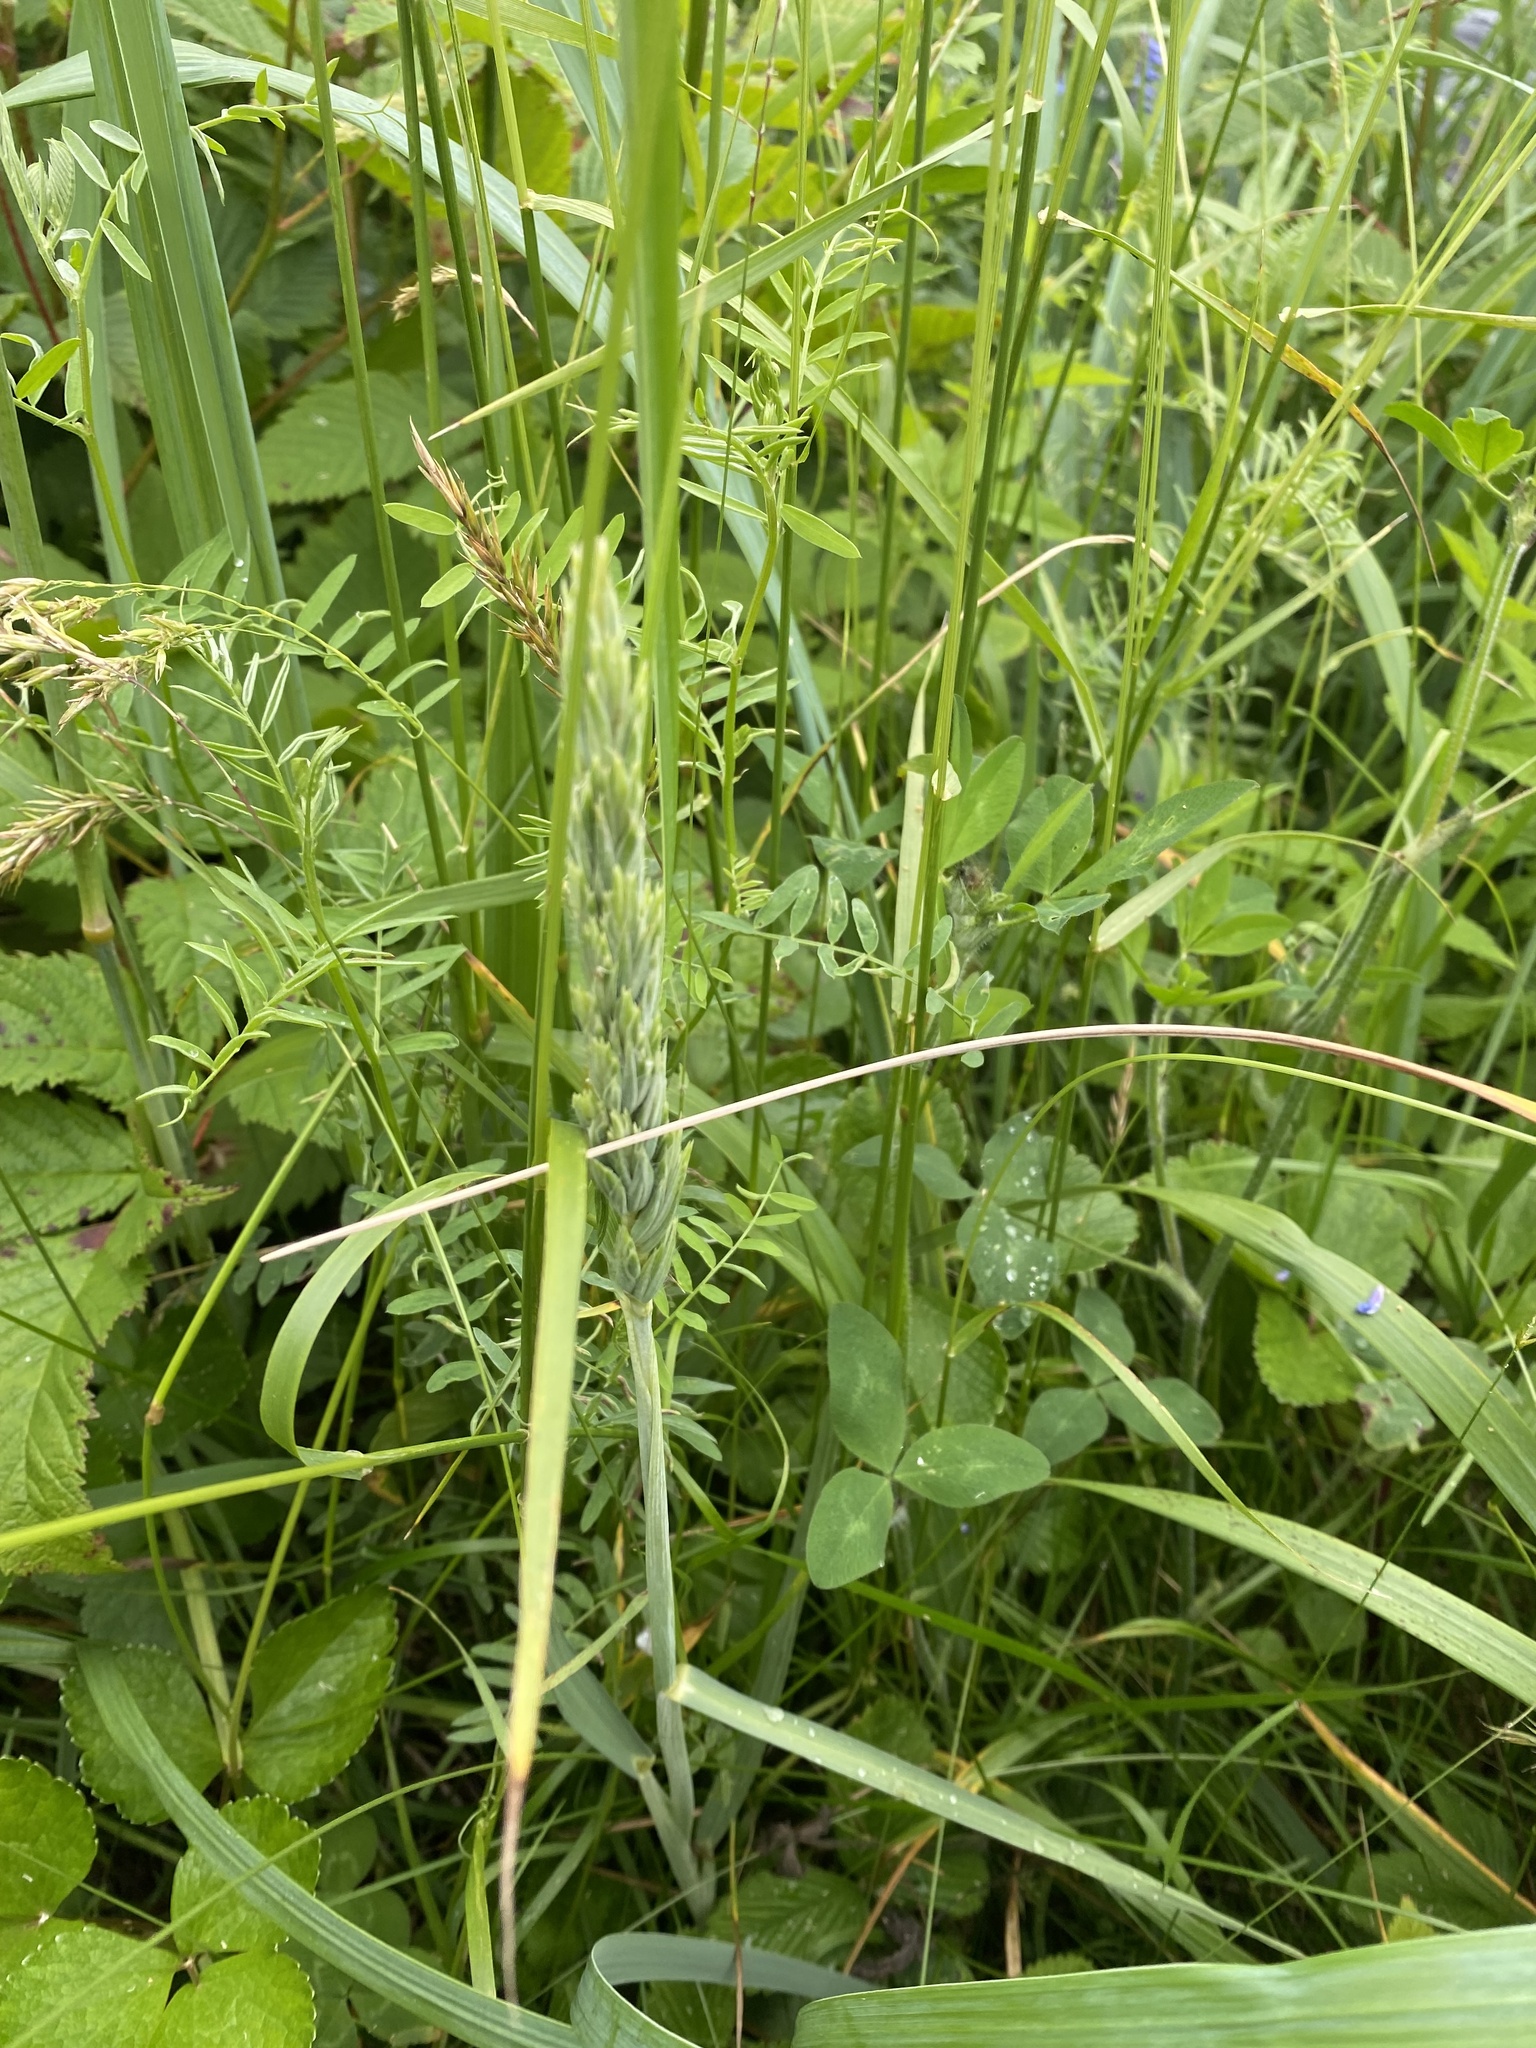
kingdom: Plantae
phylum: Tracheophyta
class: Liliopsida
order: Poales
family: Poaceae
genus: Leymus
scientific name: Leymus mollis
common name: American dune grass
